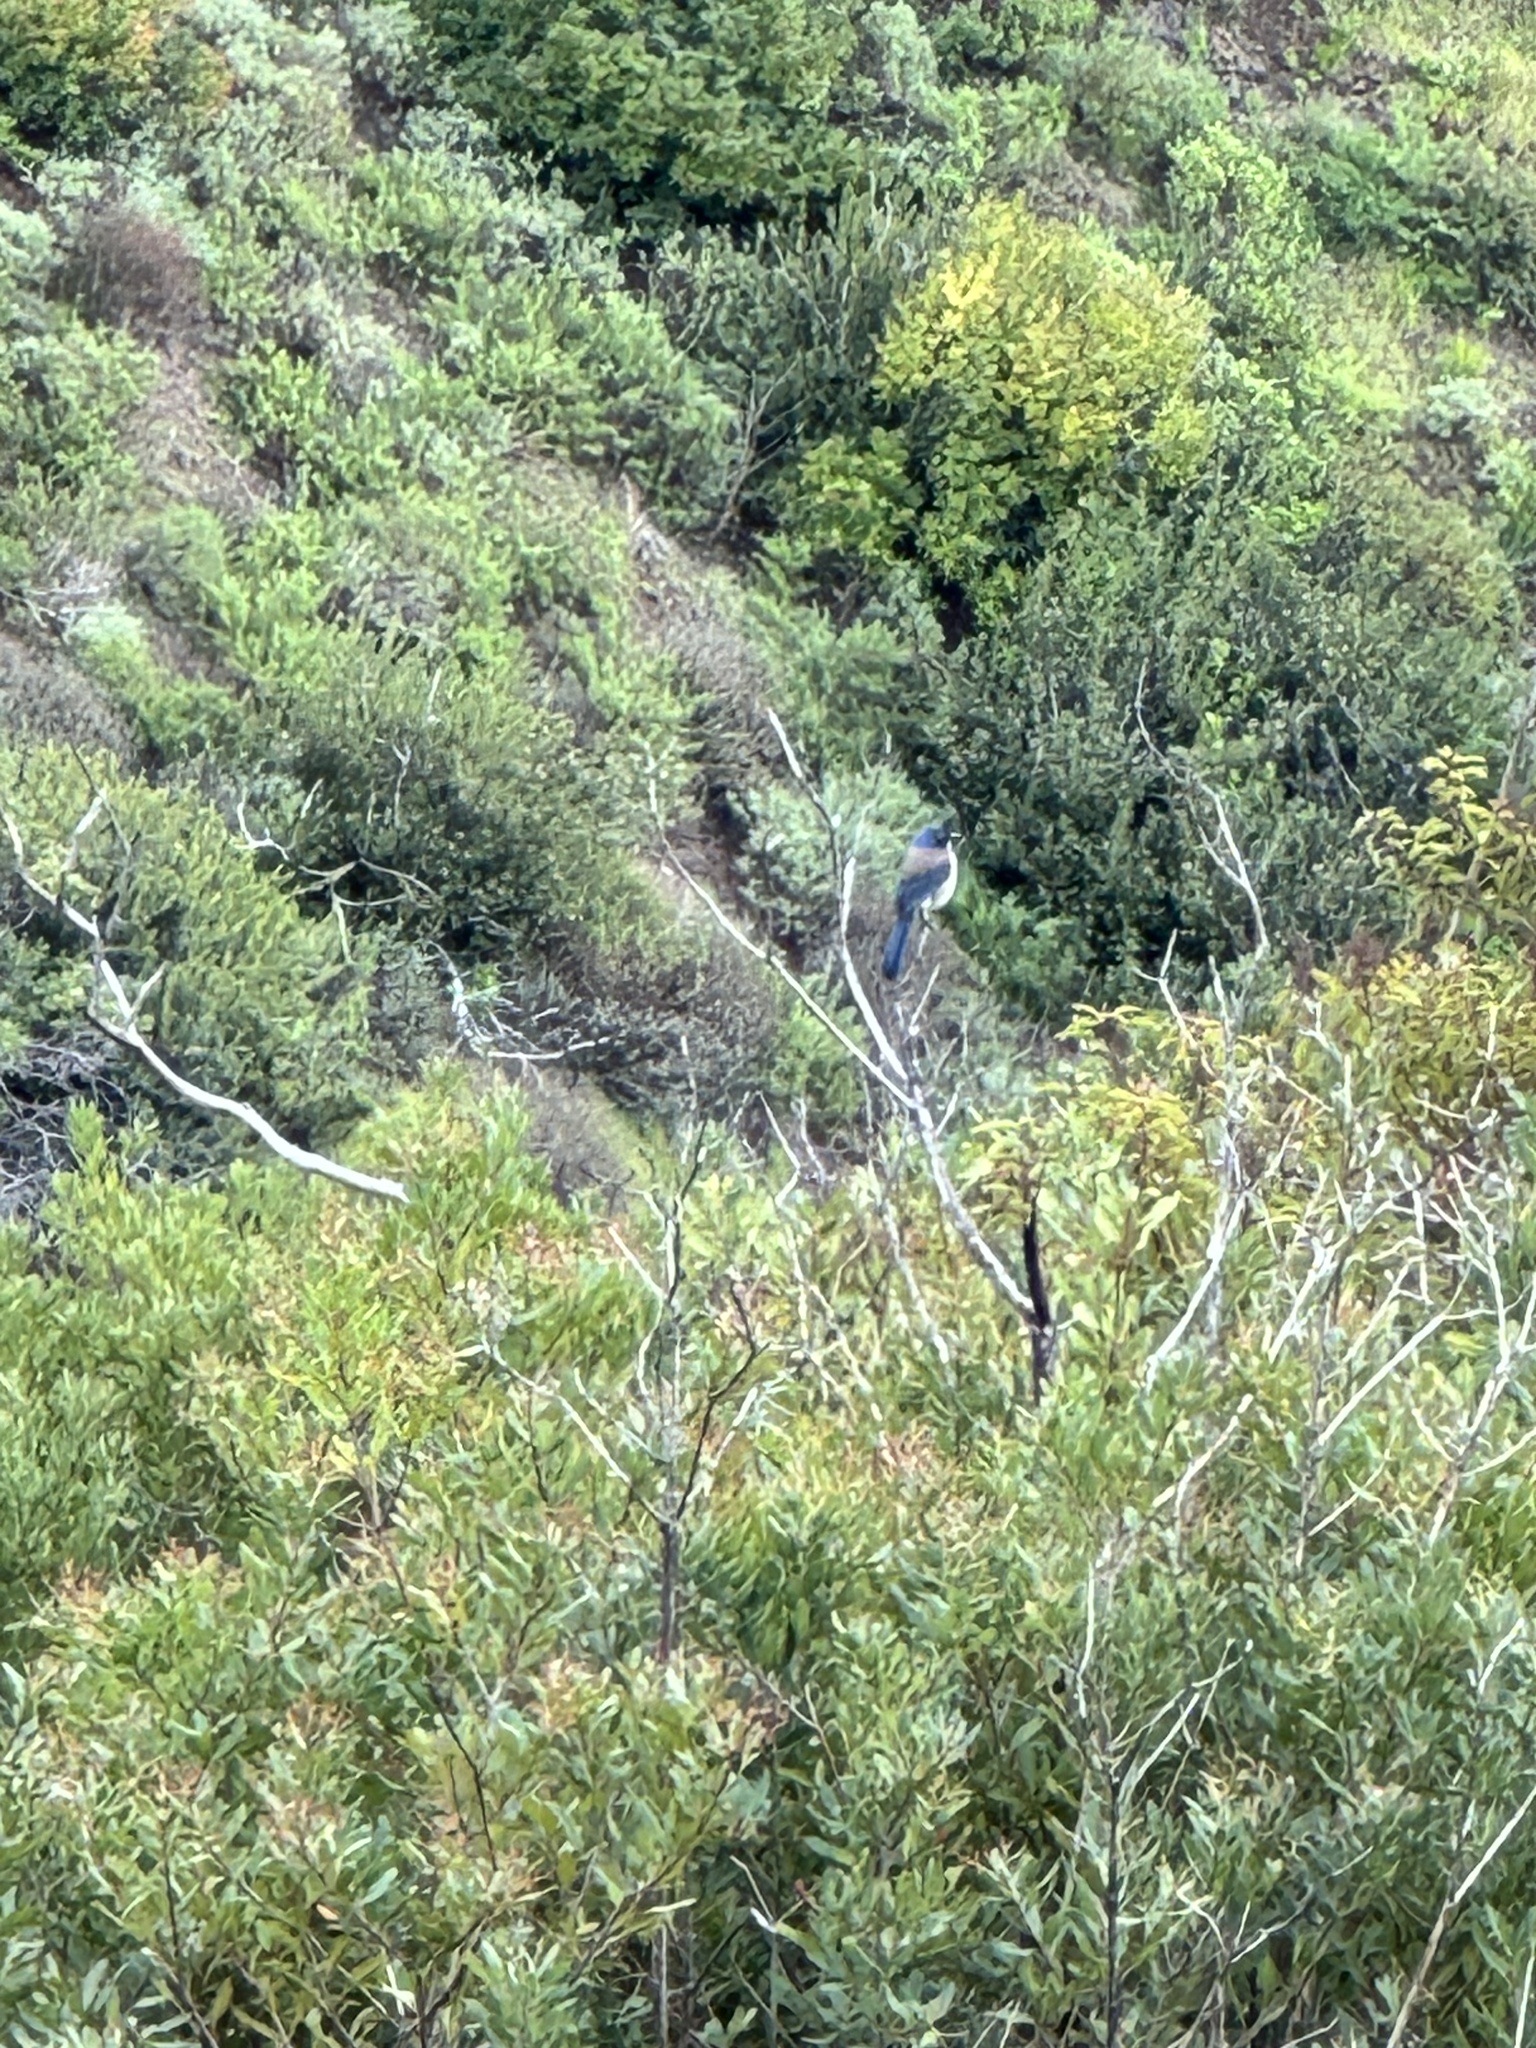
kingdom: Animalia
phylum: Chordata
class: Aves
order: Passeriformes
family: Corvidae
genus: Aphelocoma
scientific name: Aphelocoma californica
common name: California scrub-jay
